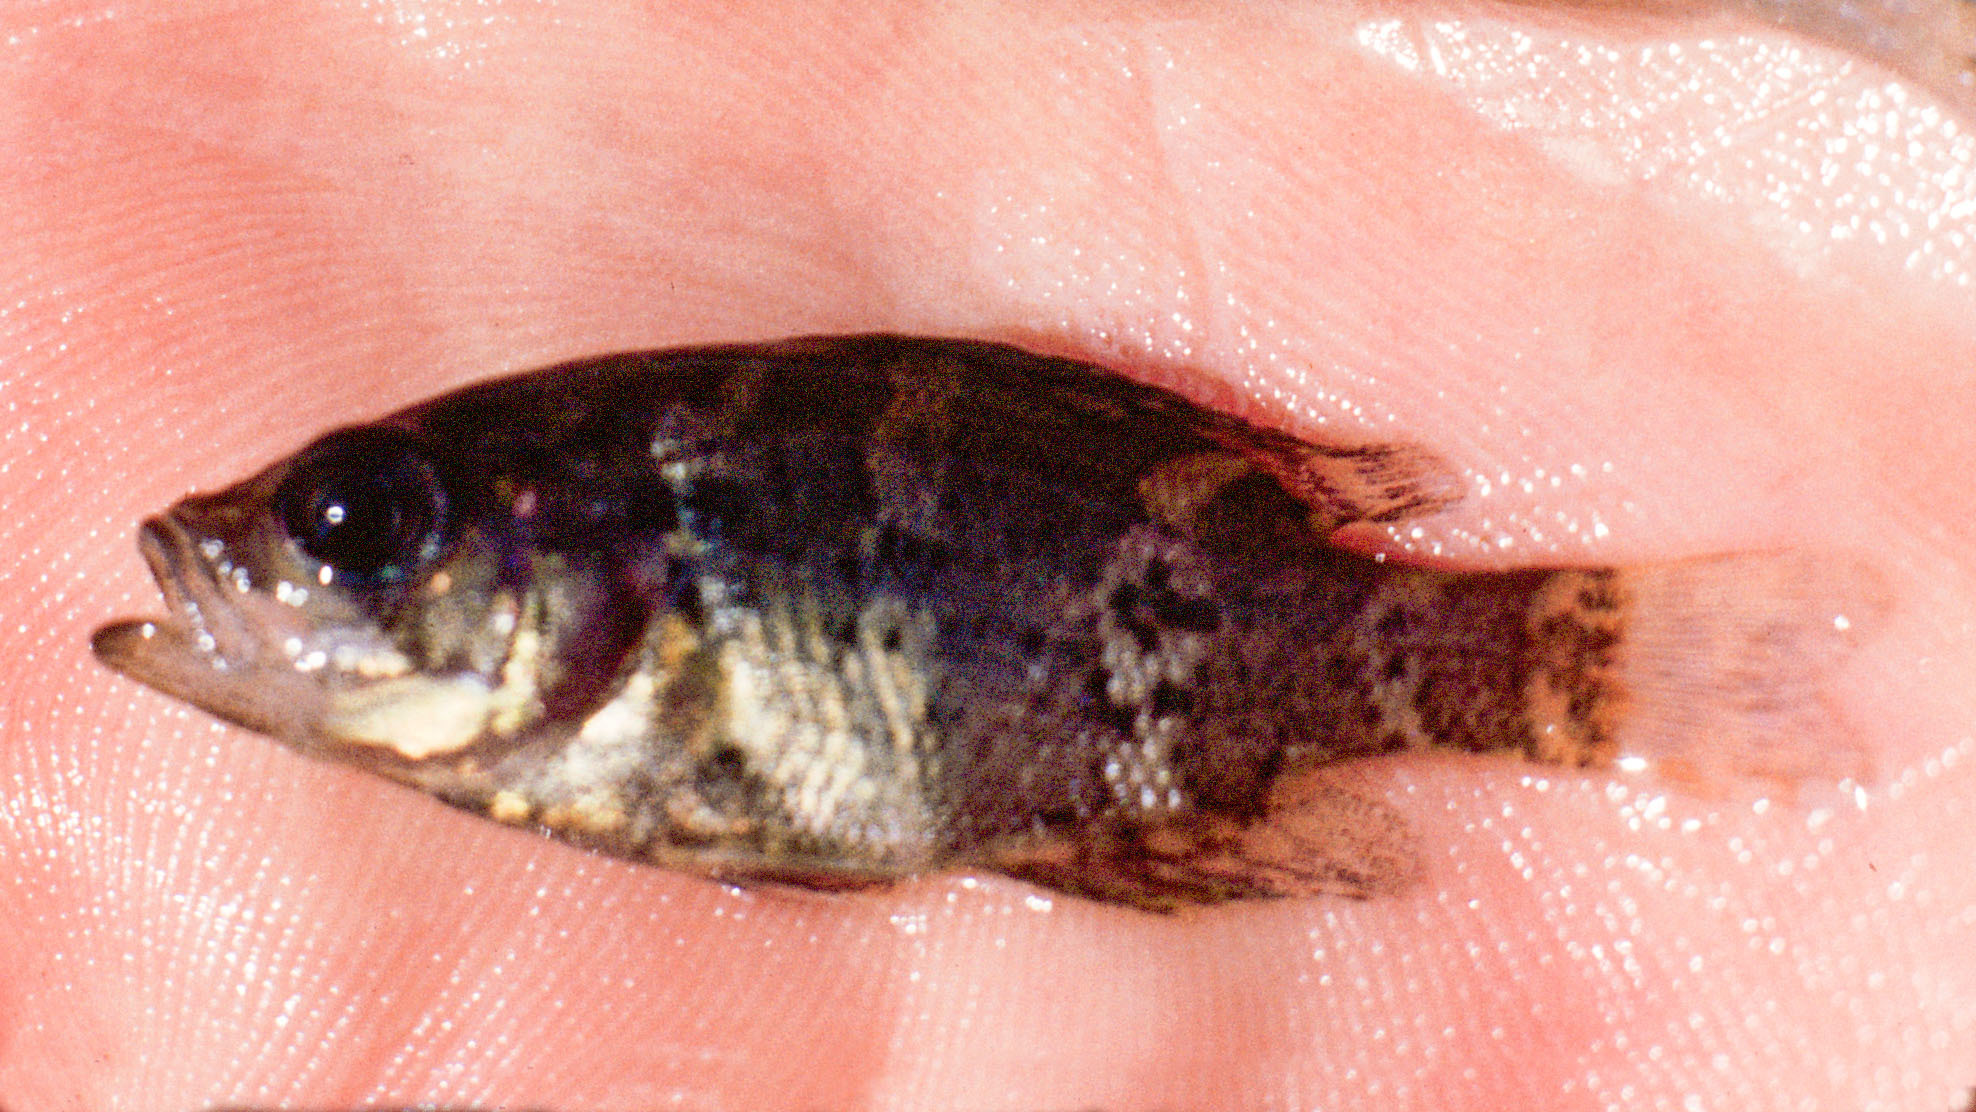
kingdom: Animalia
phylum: Chordata
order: Perciformes
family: Centrarchidae
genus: Ambloplites
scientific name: Ambloplites constellatus
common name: Ozark bass
